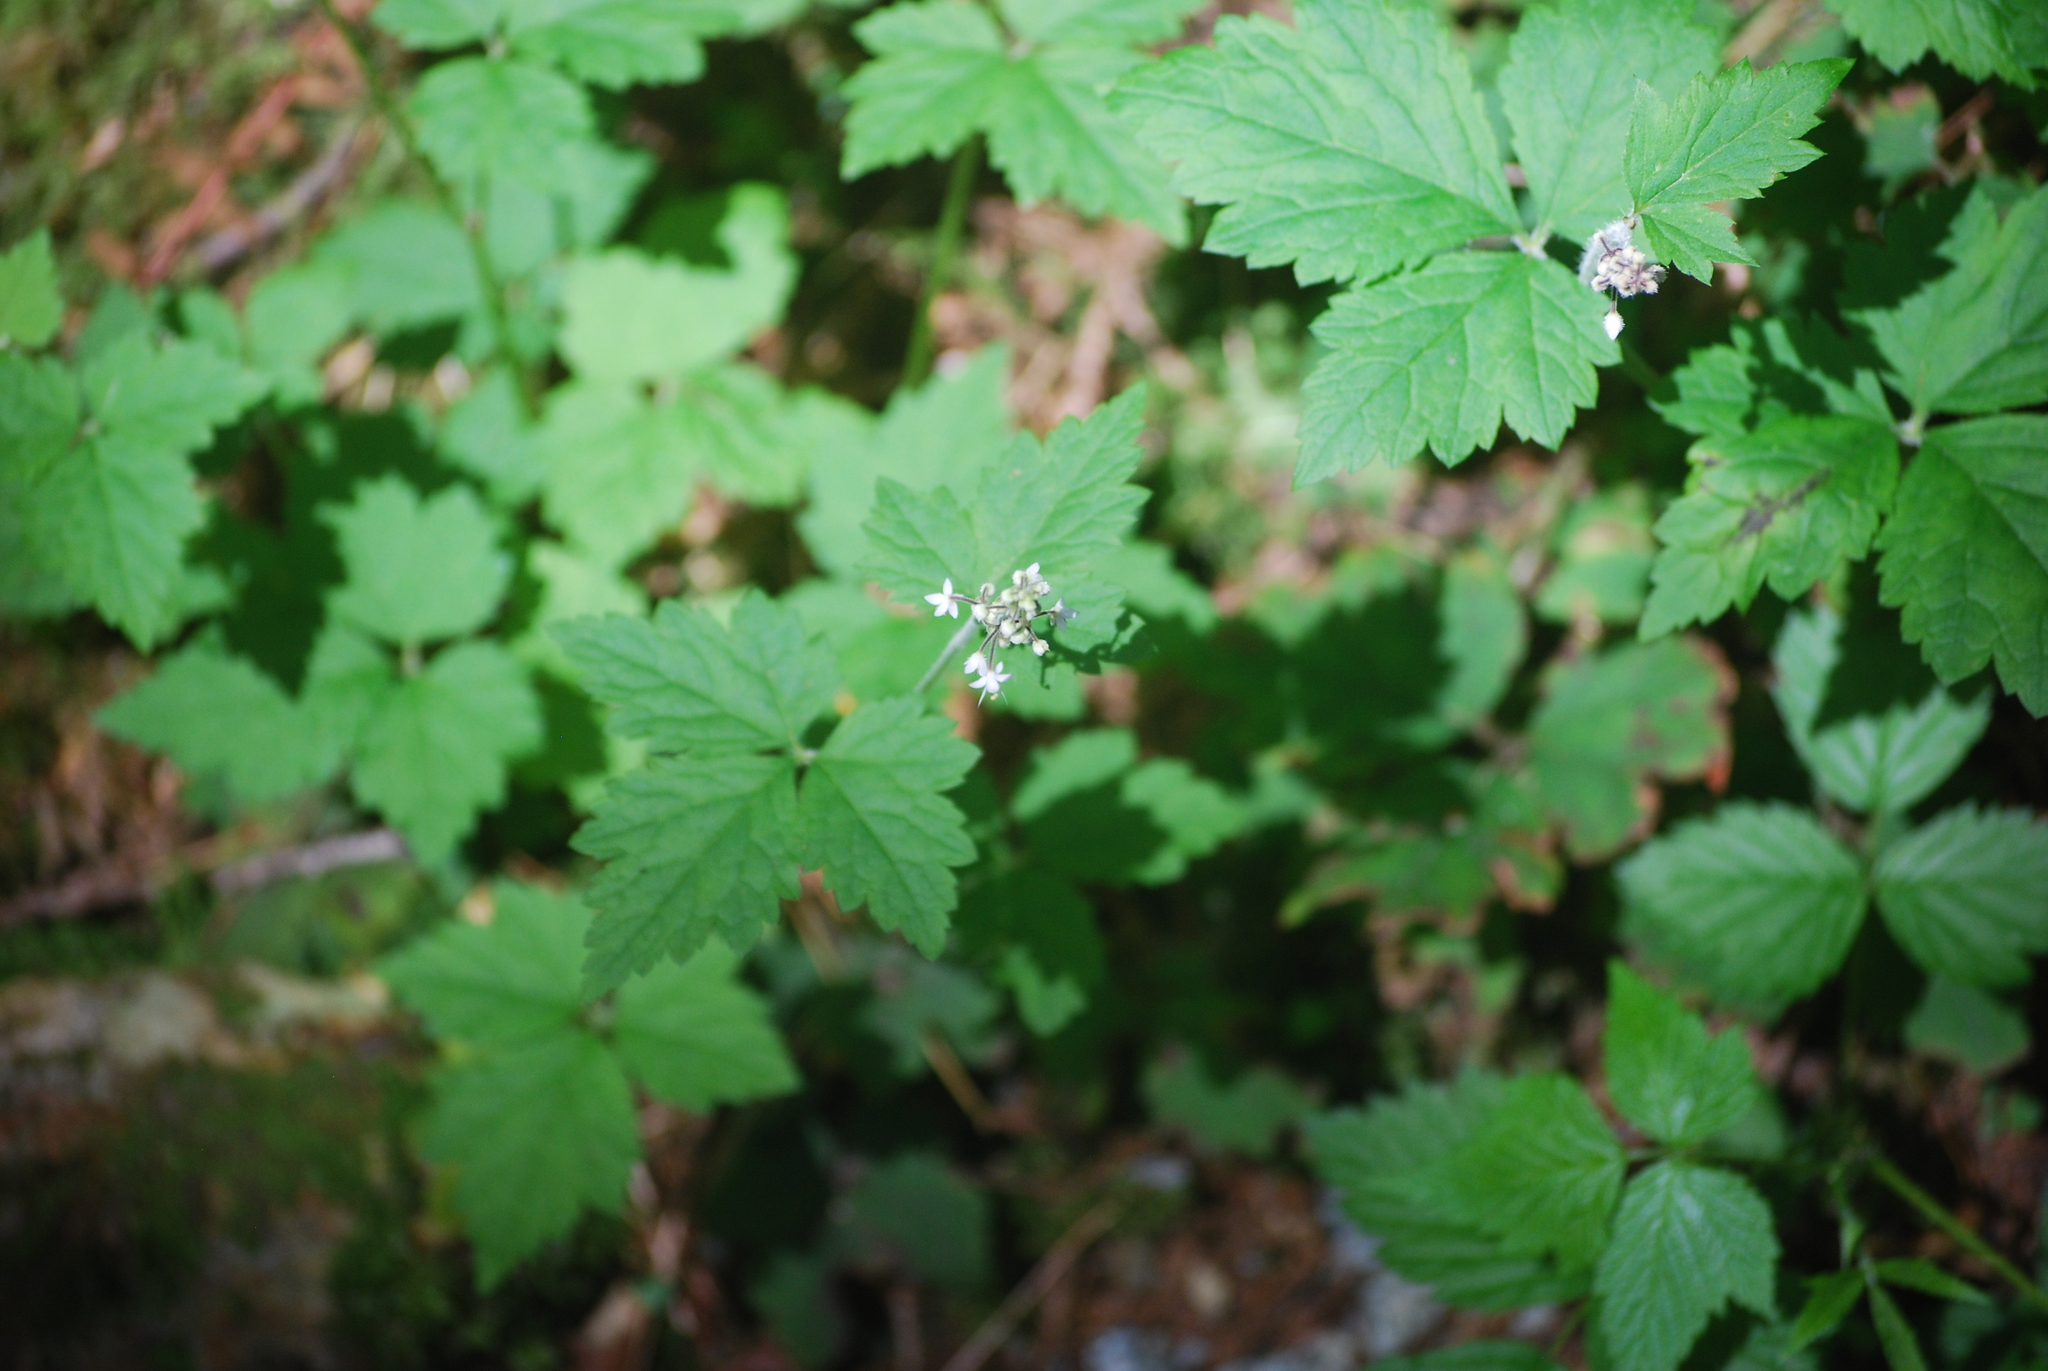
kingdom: Plantae
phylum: Tracheophyta
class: Magnoliopsida
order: Saxifragales
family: Saxifragaceae
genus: Tiarella
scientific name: Tiarella trifoliata
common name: Sugar-scoop
